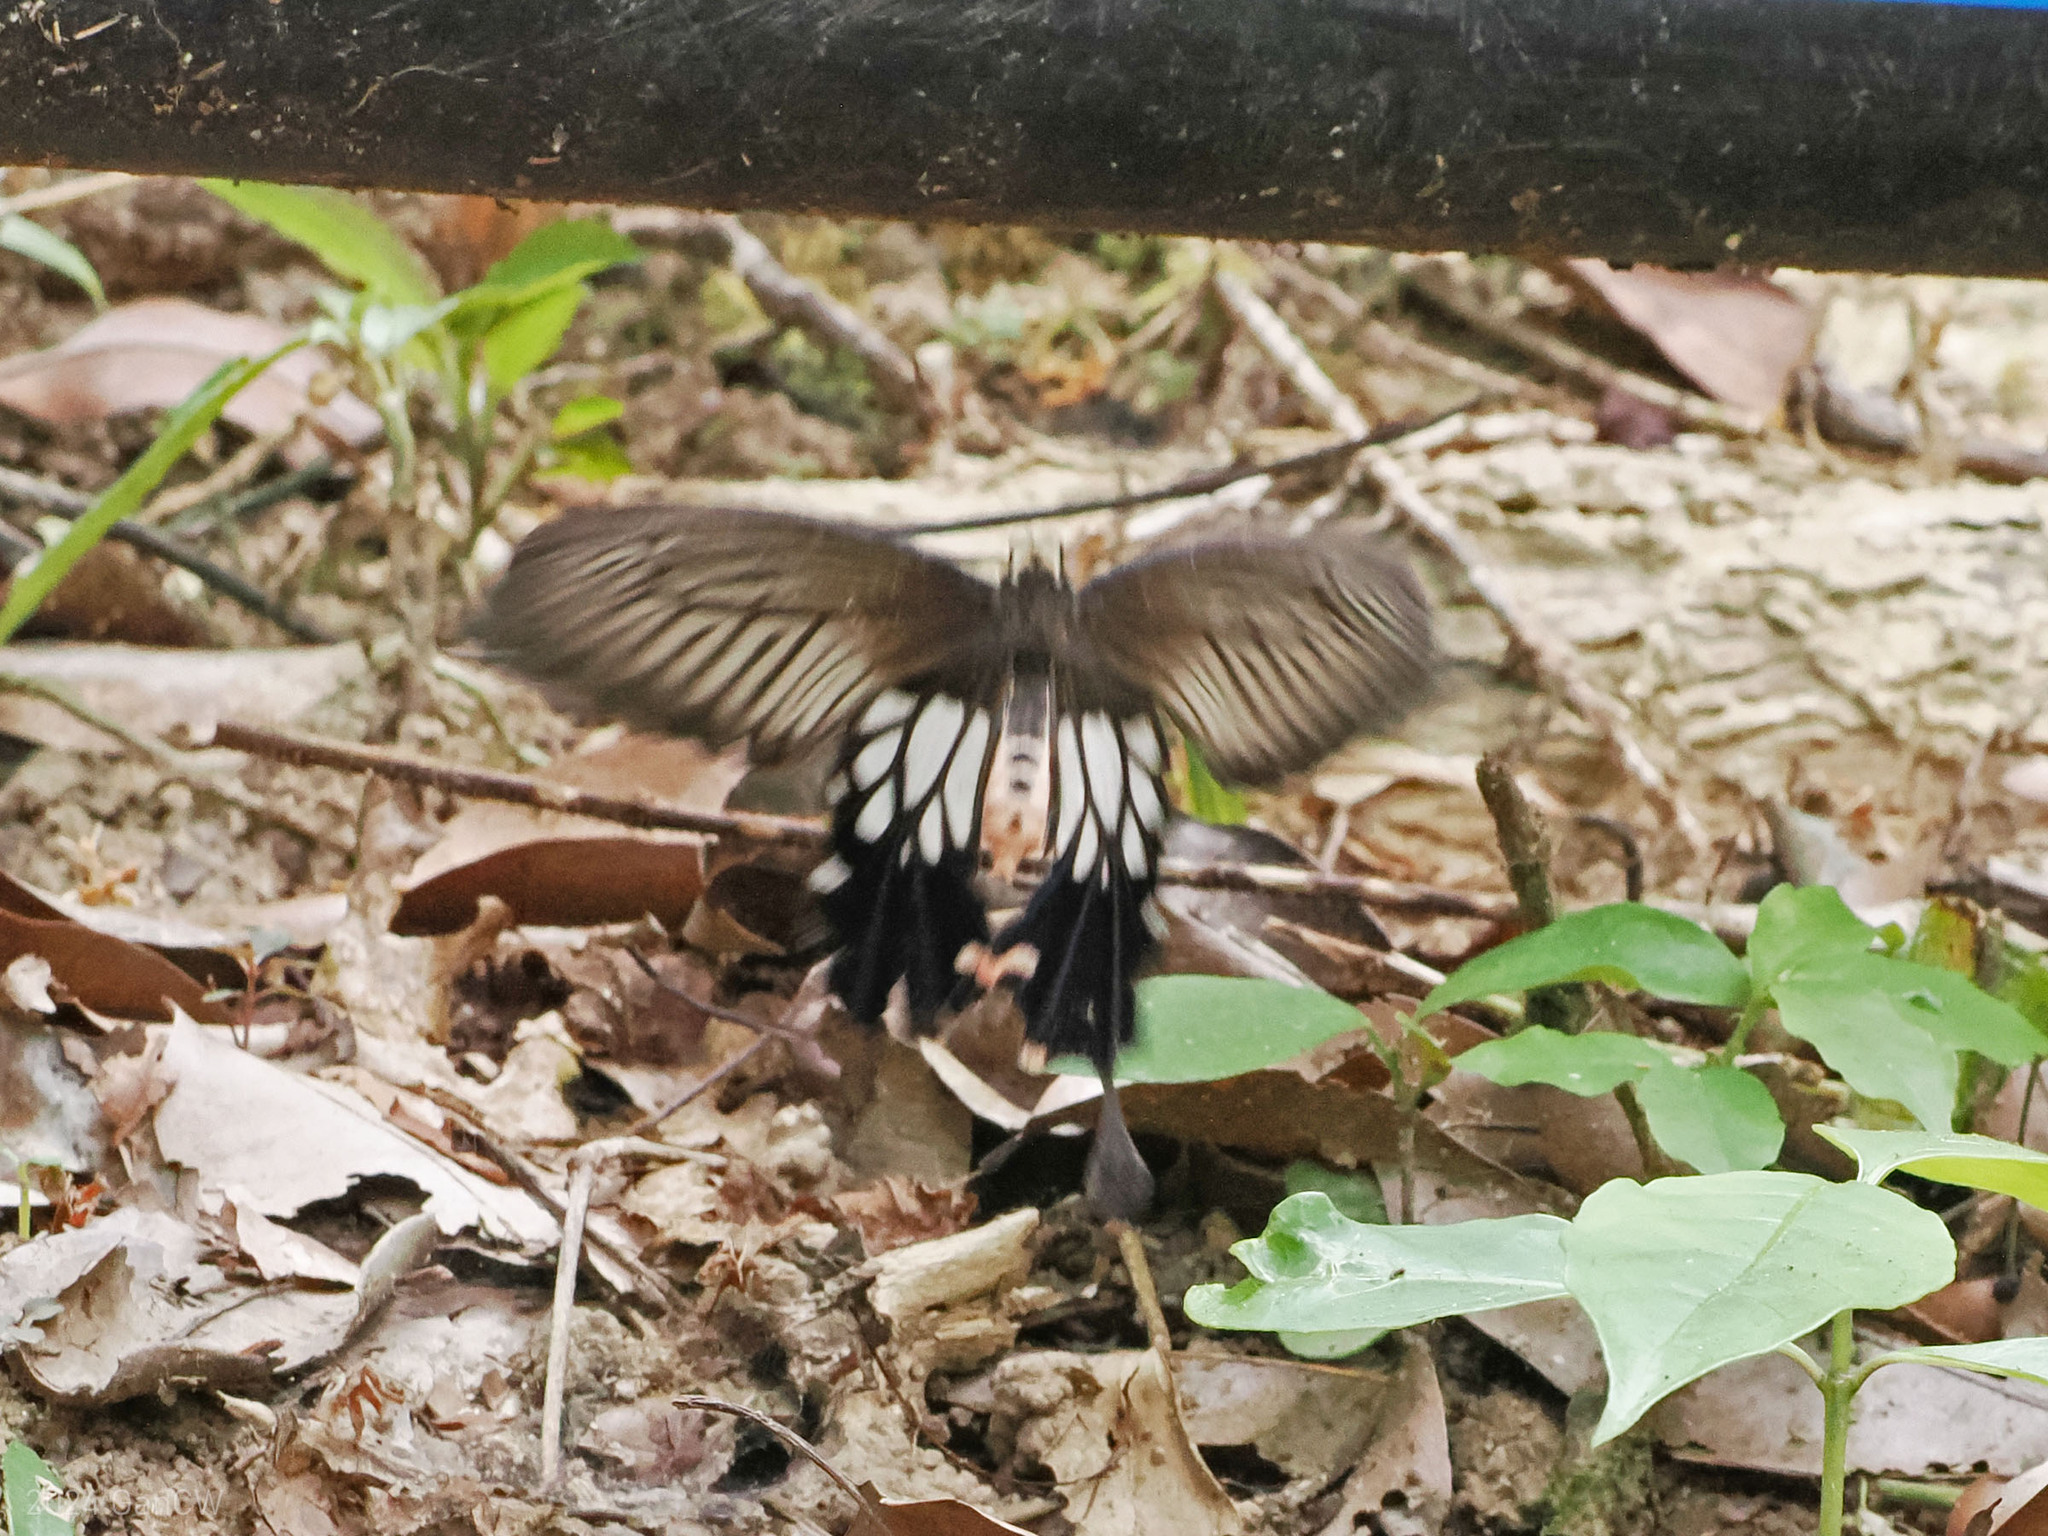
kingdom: Animalia
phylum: Arthropoda
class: Insecta
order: Lepidoptera
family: Papilionidae
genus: Losaria
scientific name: Losaria
